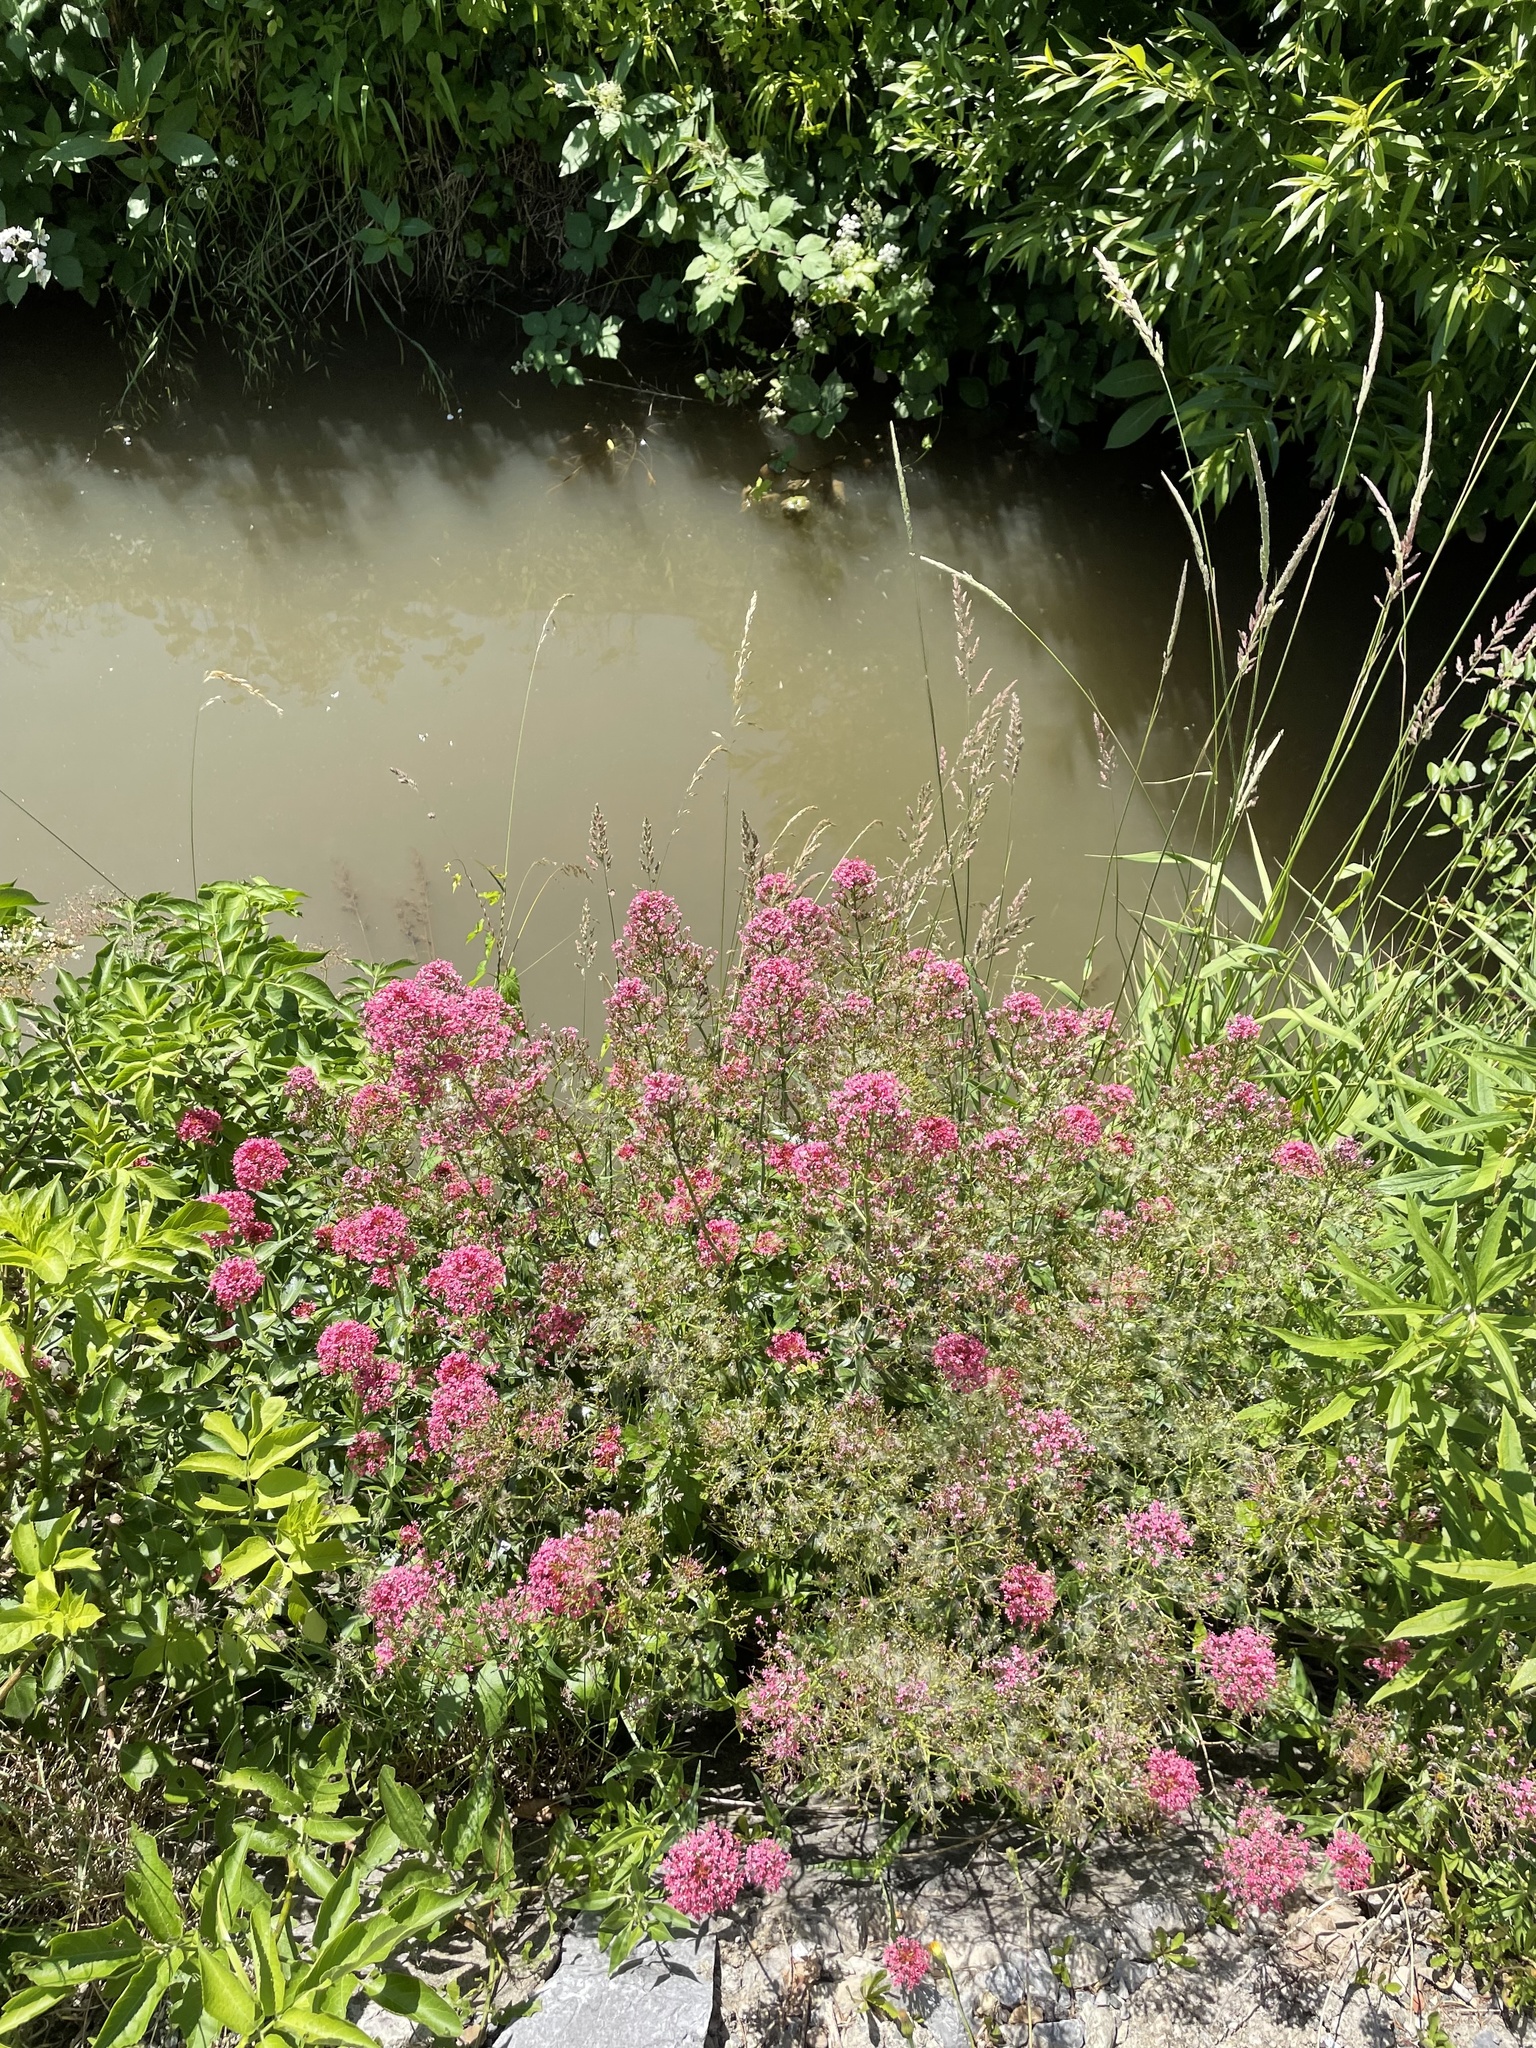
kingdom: Plantae
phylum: Tracheophyta
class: Magnoliopsida
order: Dipsacales
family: Caprifoliaceae
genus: Centranthus
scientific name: Centranthus ruber
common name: Red valerian
